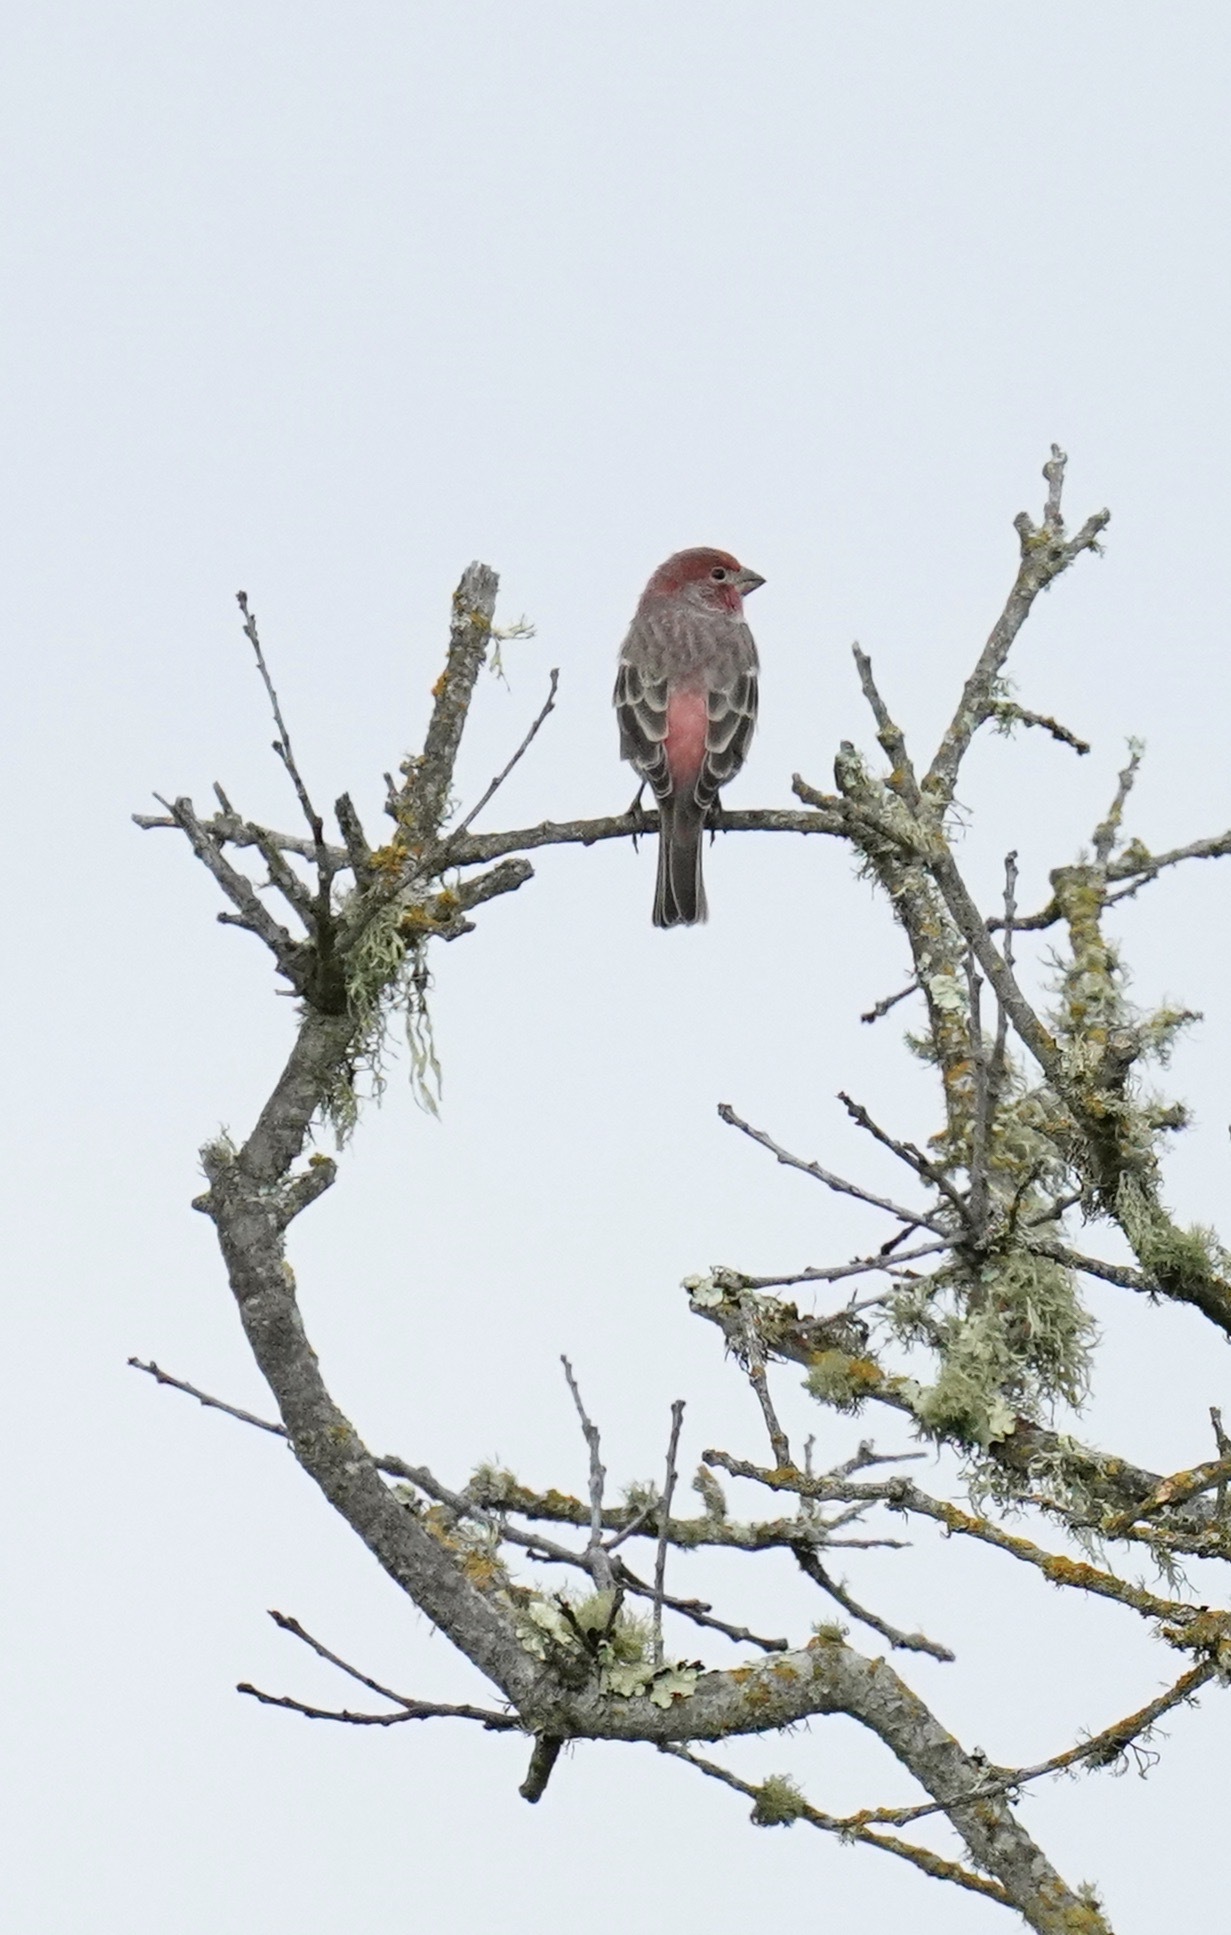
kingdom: Animalia
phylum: Chordata
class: Aves
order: Passeriformes
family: Fringillidae
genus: Haemorhous
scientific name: Haemorhous mexicanus
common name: House finch
